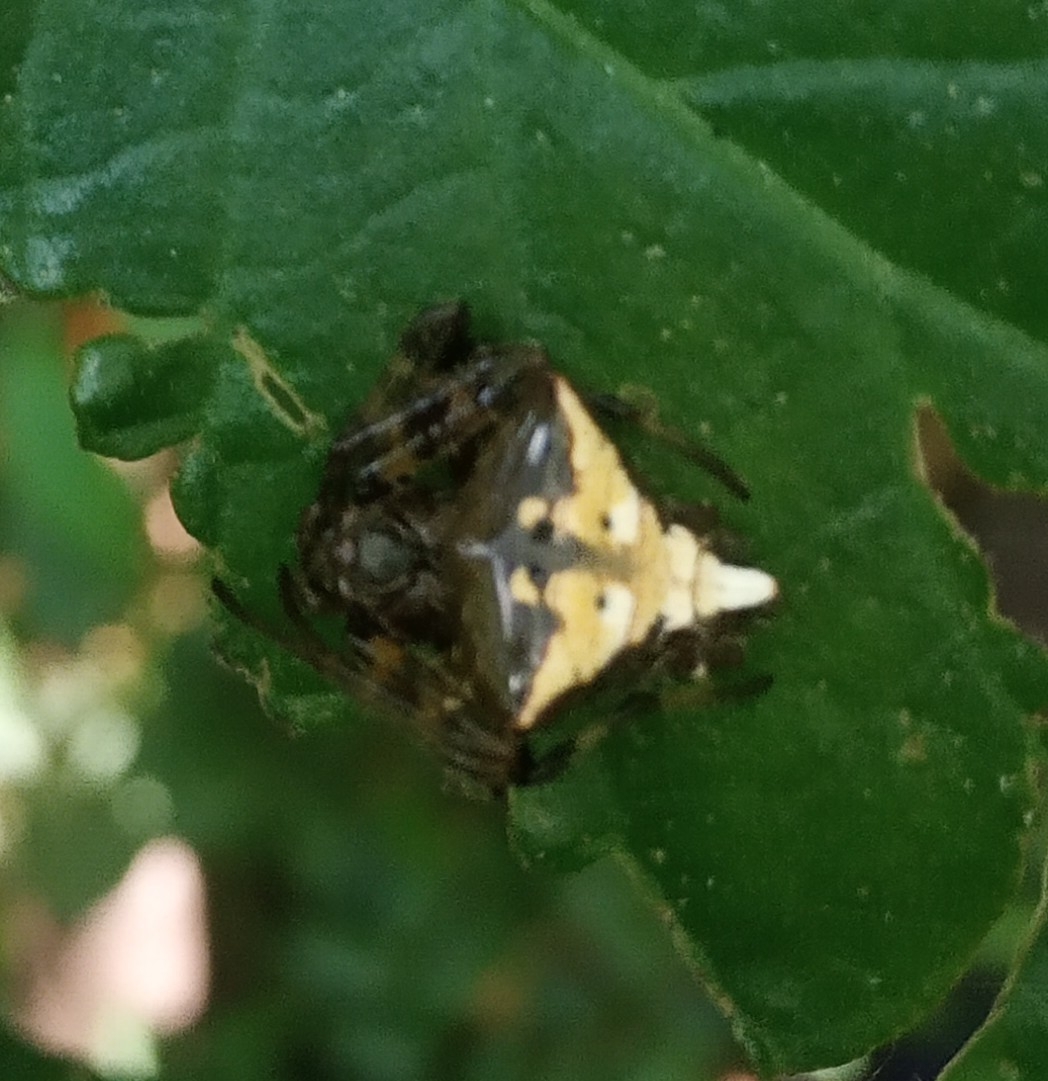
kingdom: Animalia
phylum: Arthropoda
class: Arachnida
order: Araneae
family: Araneidae
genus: Verrucosa
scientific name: Verrucosa scapofracta
